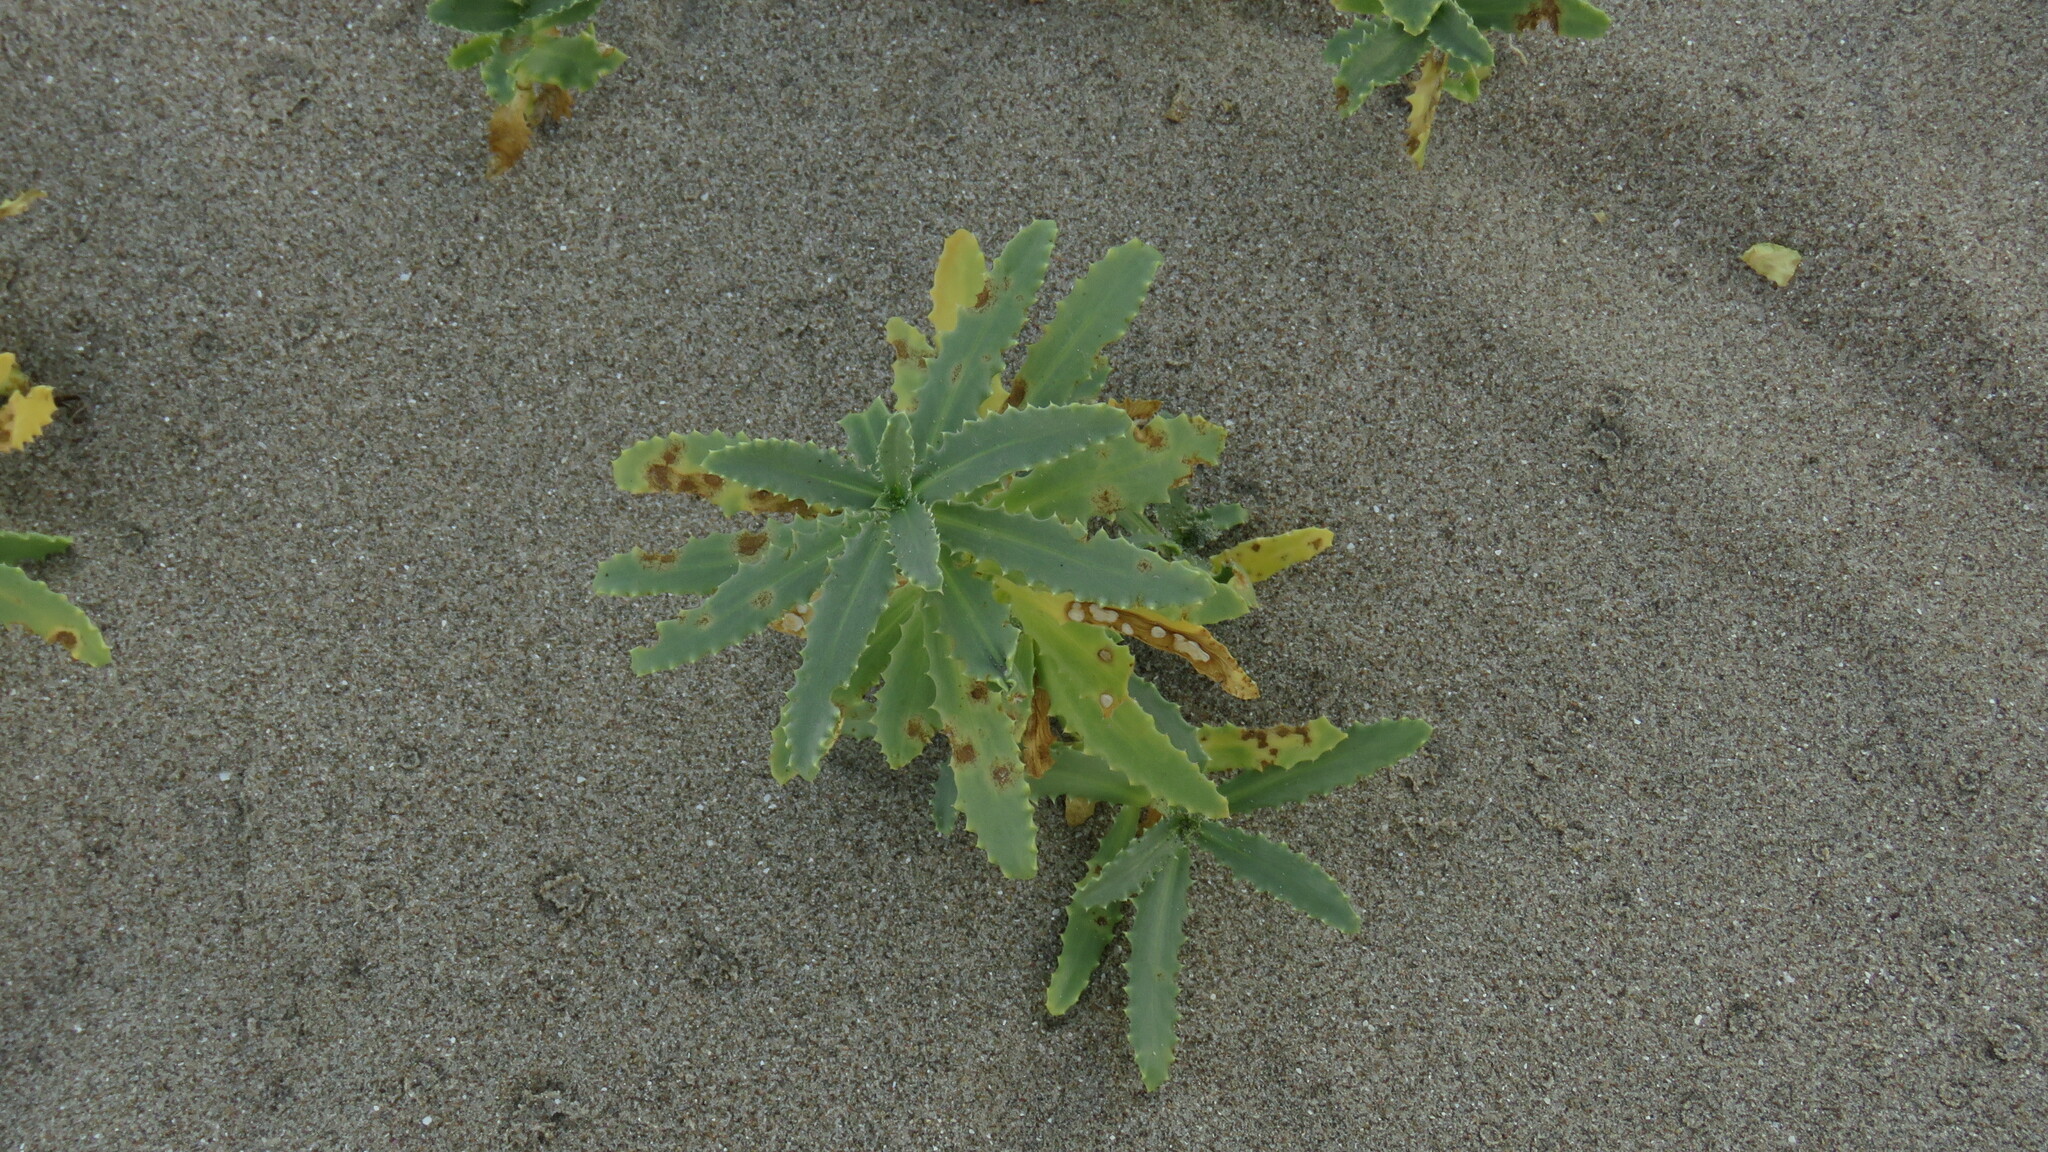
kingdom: Plantae
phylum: Tracheophyta
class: Magnoliopsida
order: Asterales
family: Calyceraceae
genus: Calycera
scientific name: Calycera crassifolia
